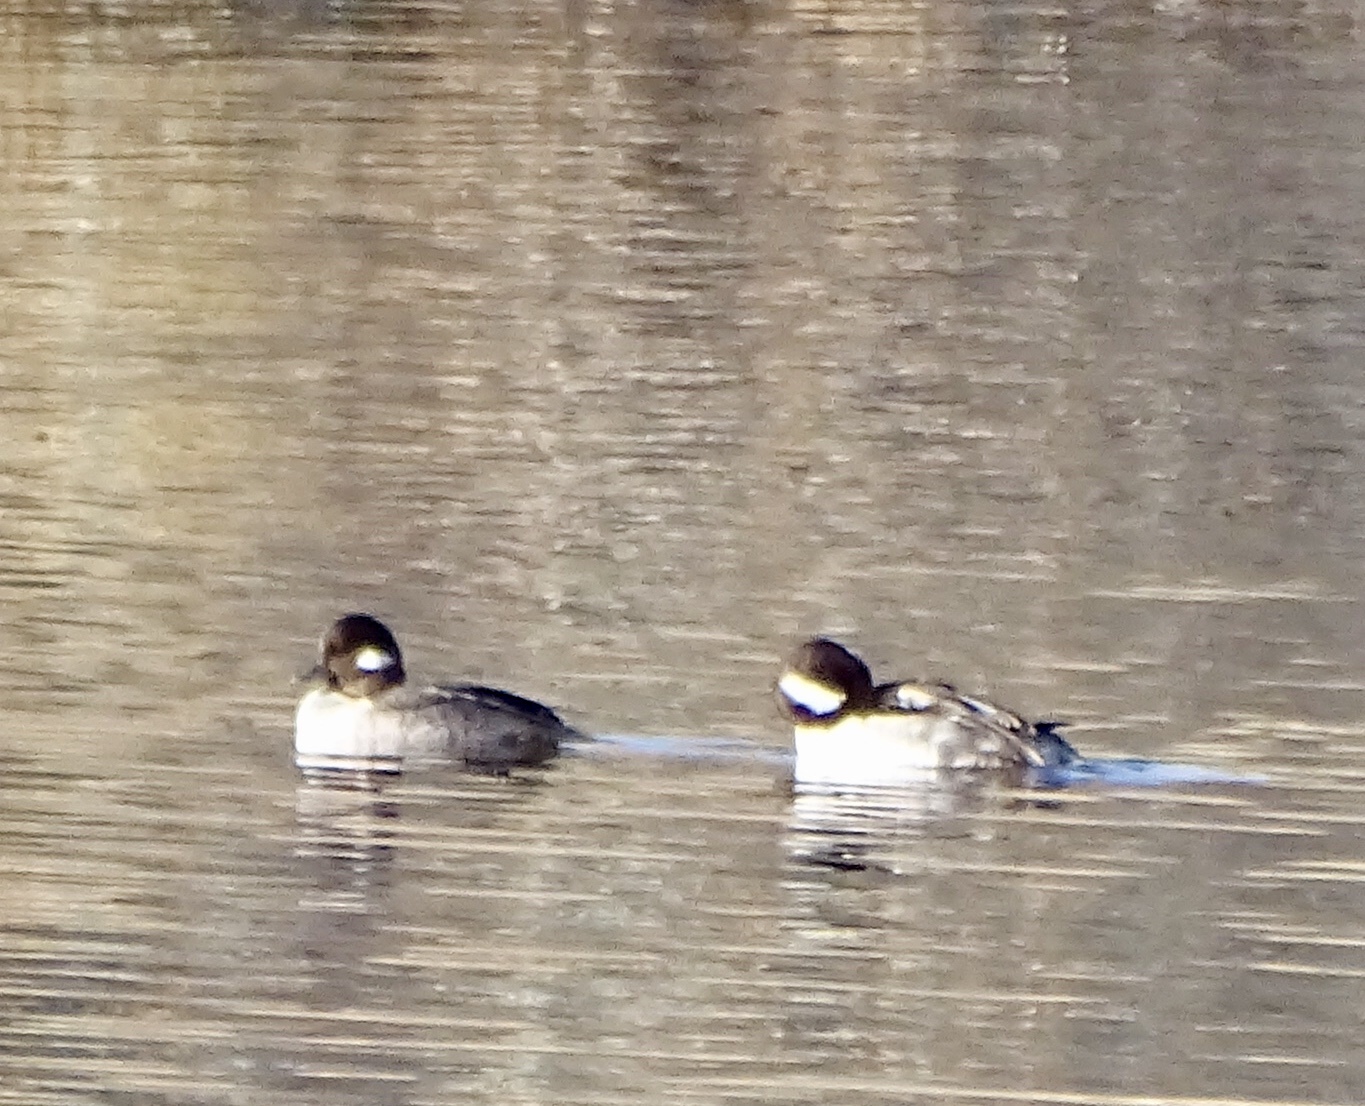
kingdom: Animalia
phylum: Chordata
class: Aves
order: Anseriformes
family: Anatidae
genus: Bucephala
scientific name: Bucephala albeola
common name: Bufflehead
